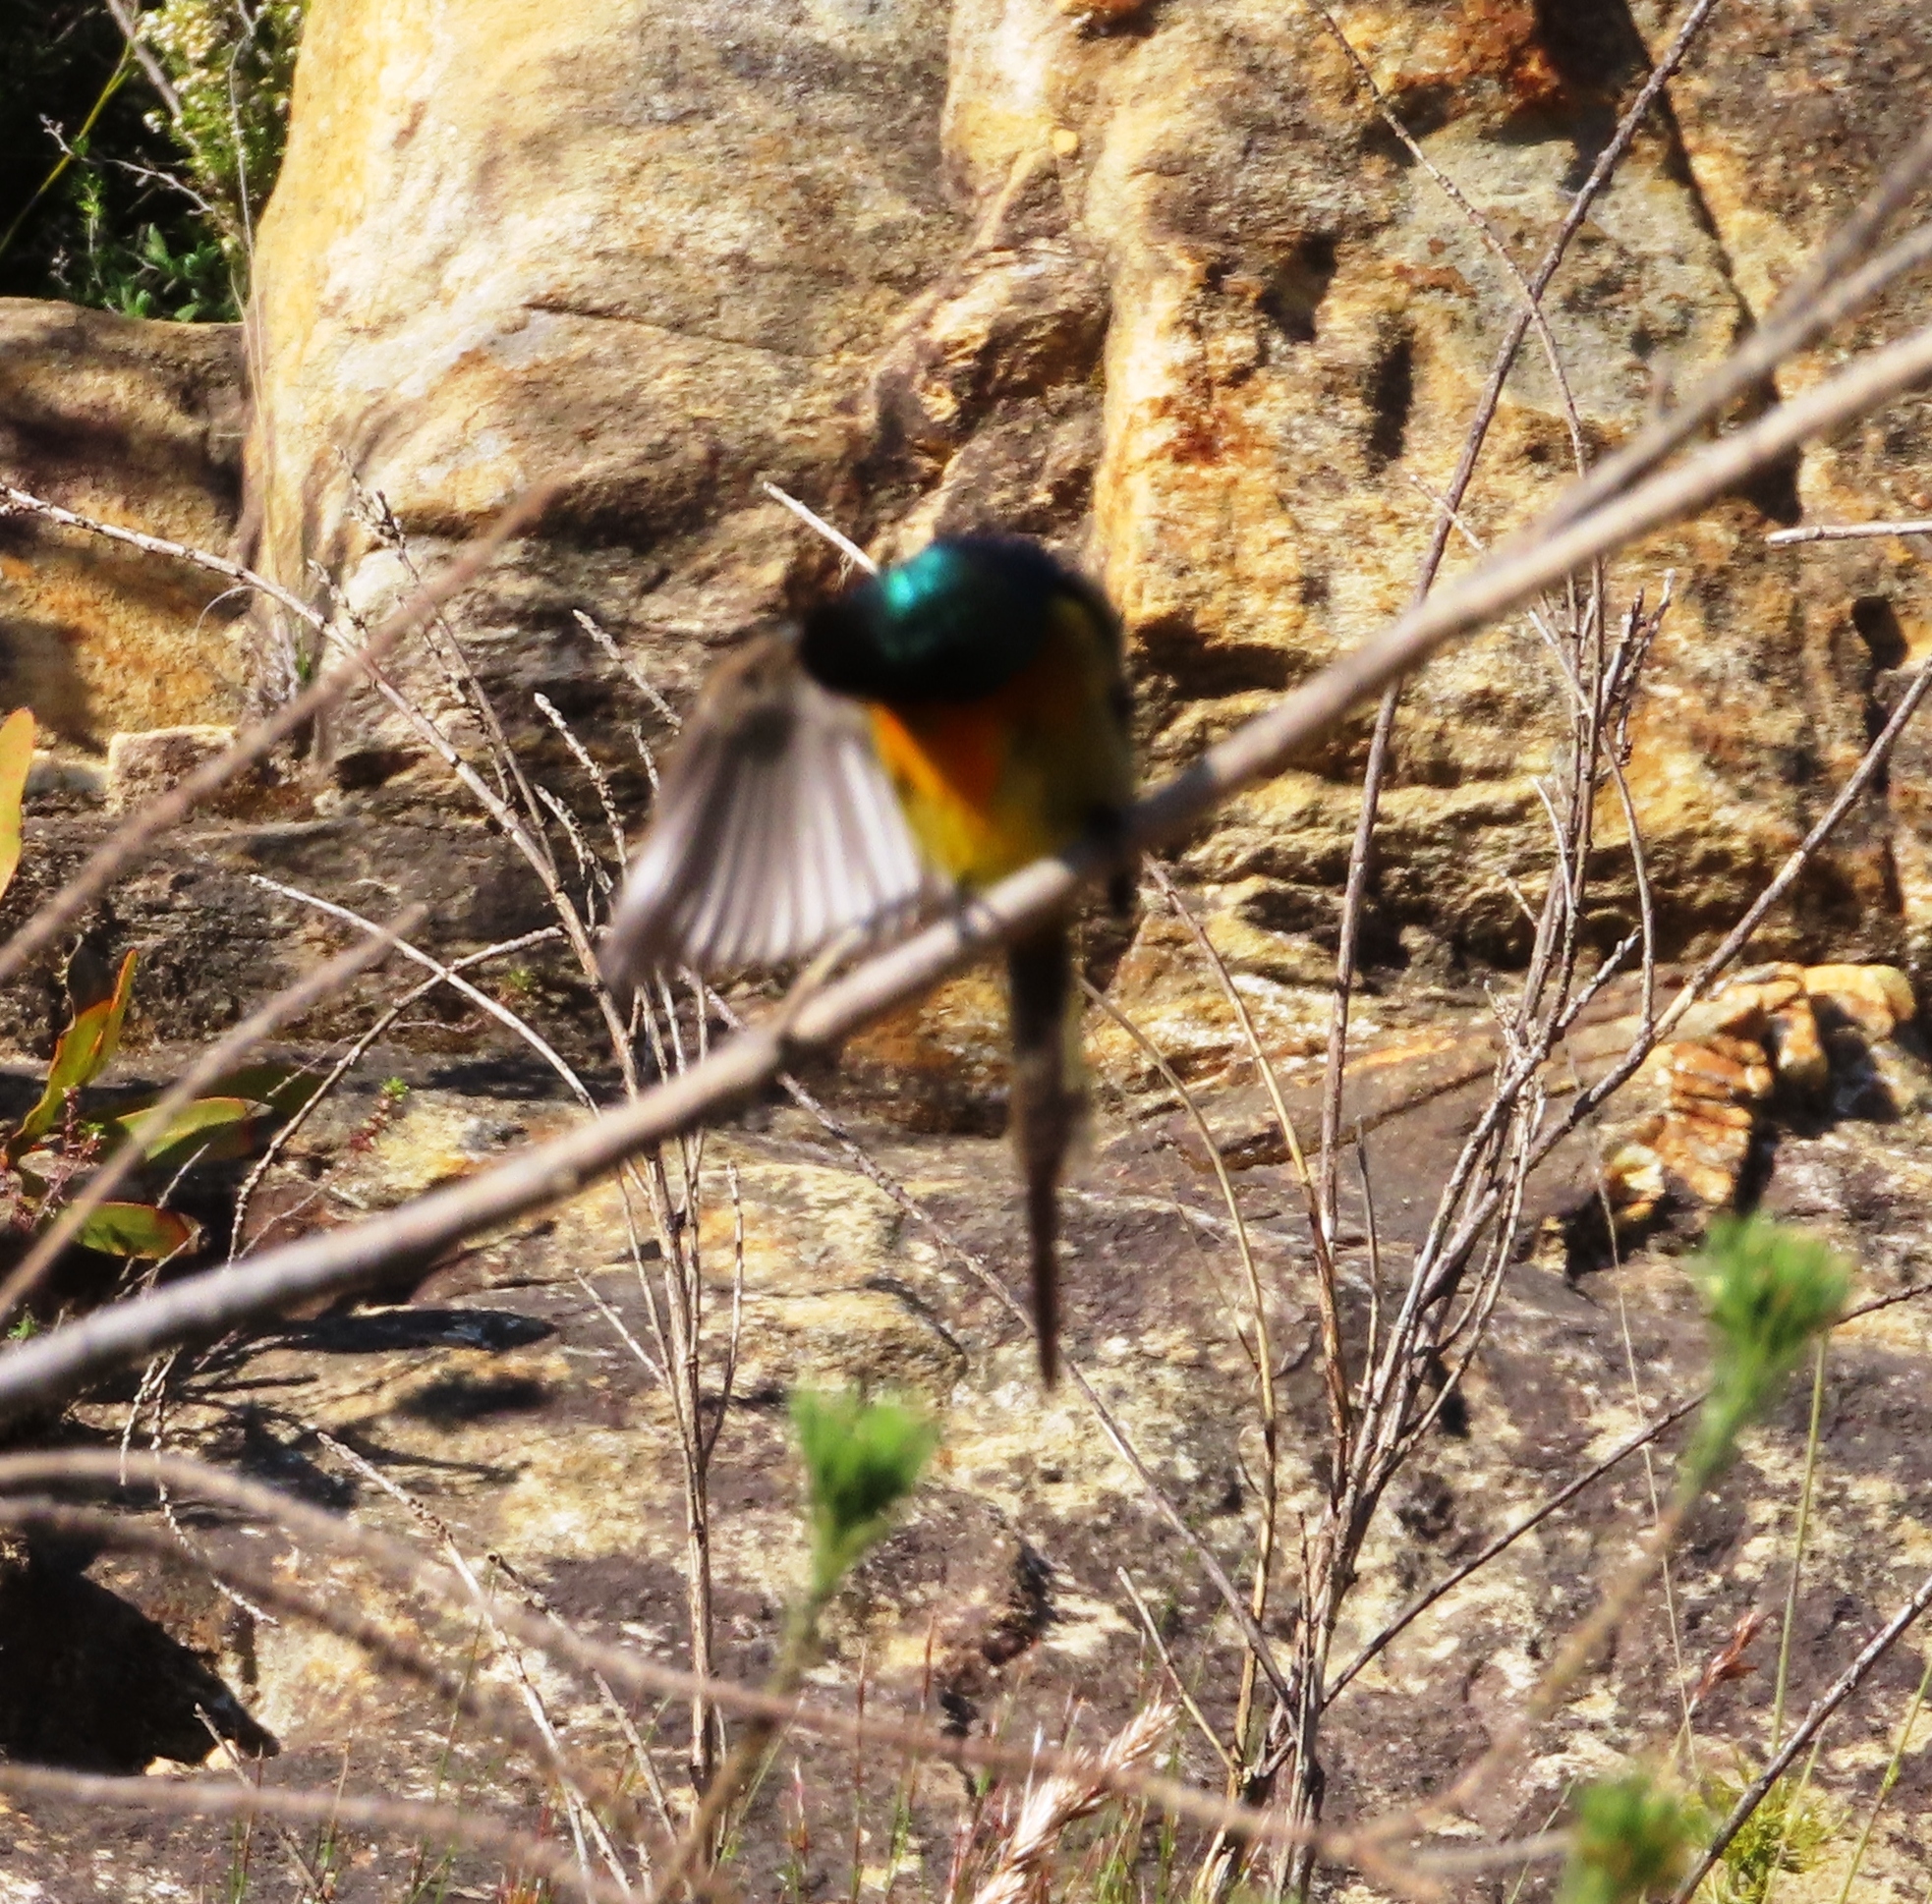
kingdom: Animalia
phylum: Chordata
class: Aves
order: Passeriformes
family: Nectariniidae
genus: Anthobaphes
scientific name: Anthobaphes violacea
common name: Orange-breasted sunbird
